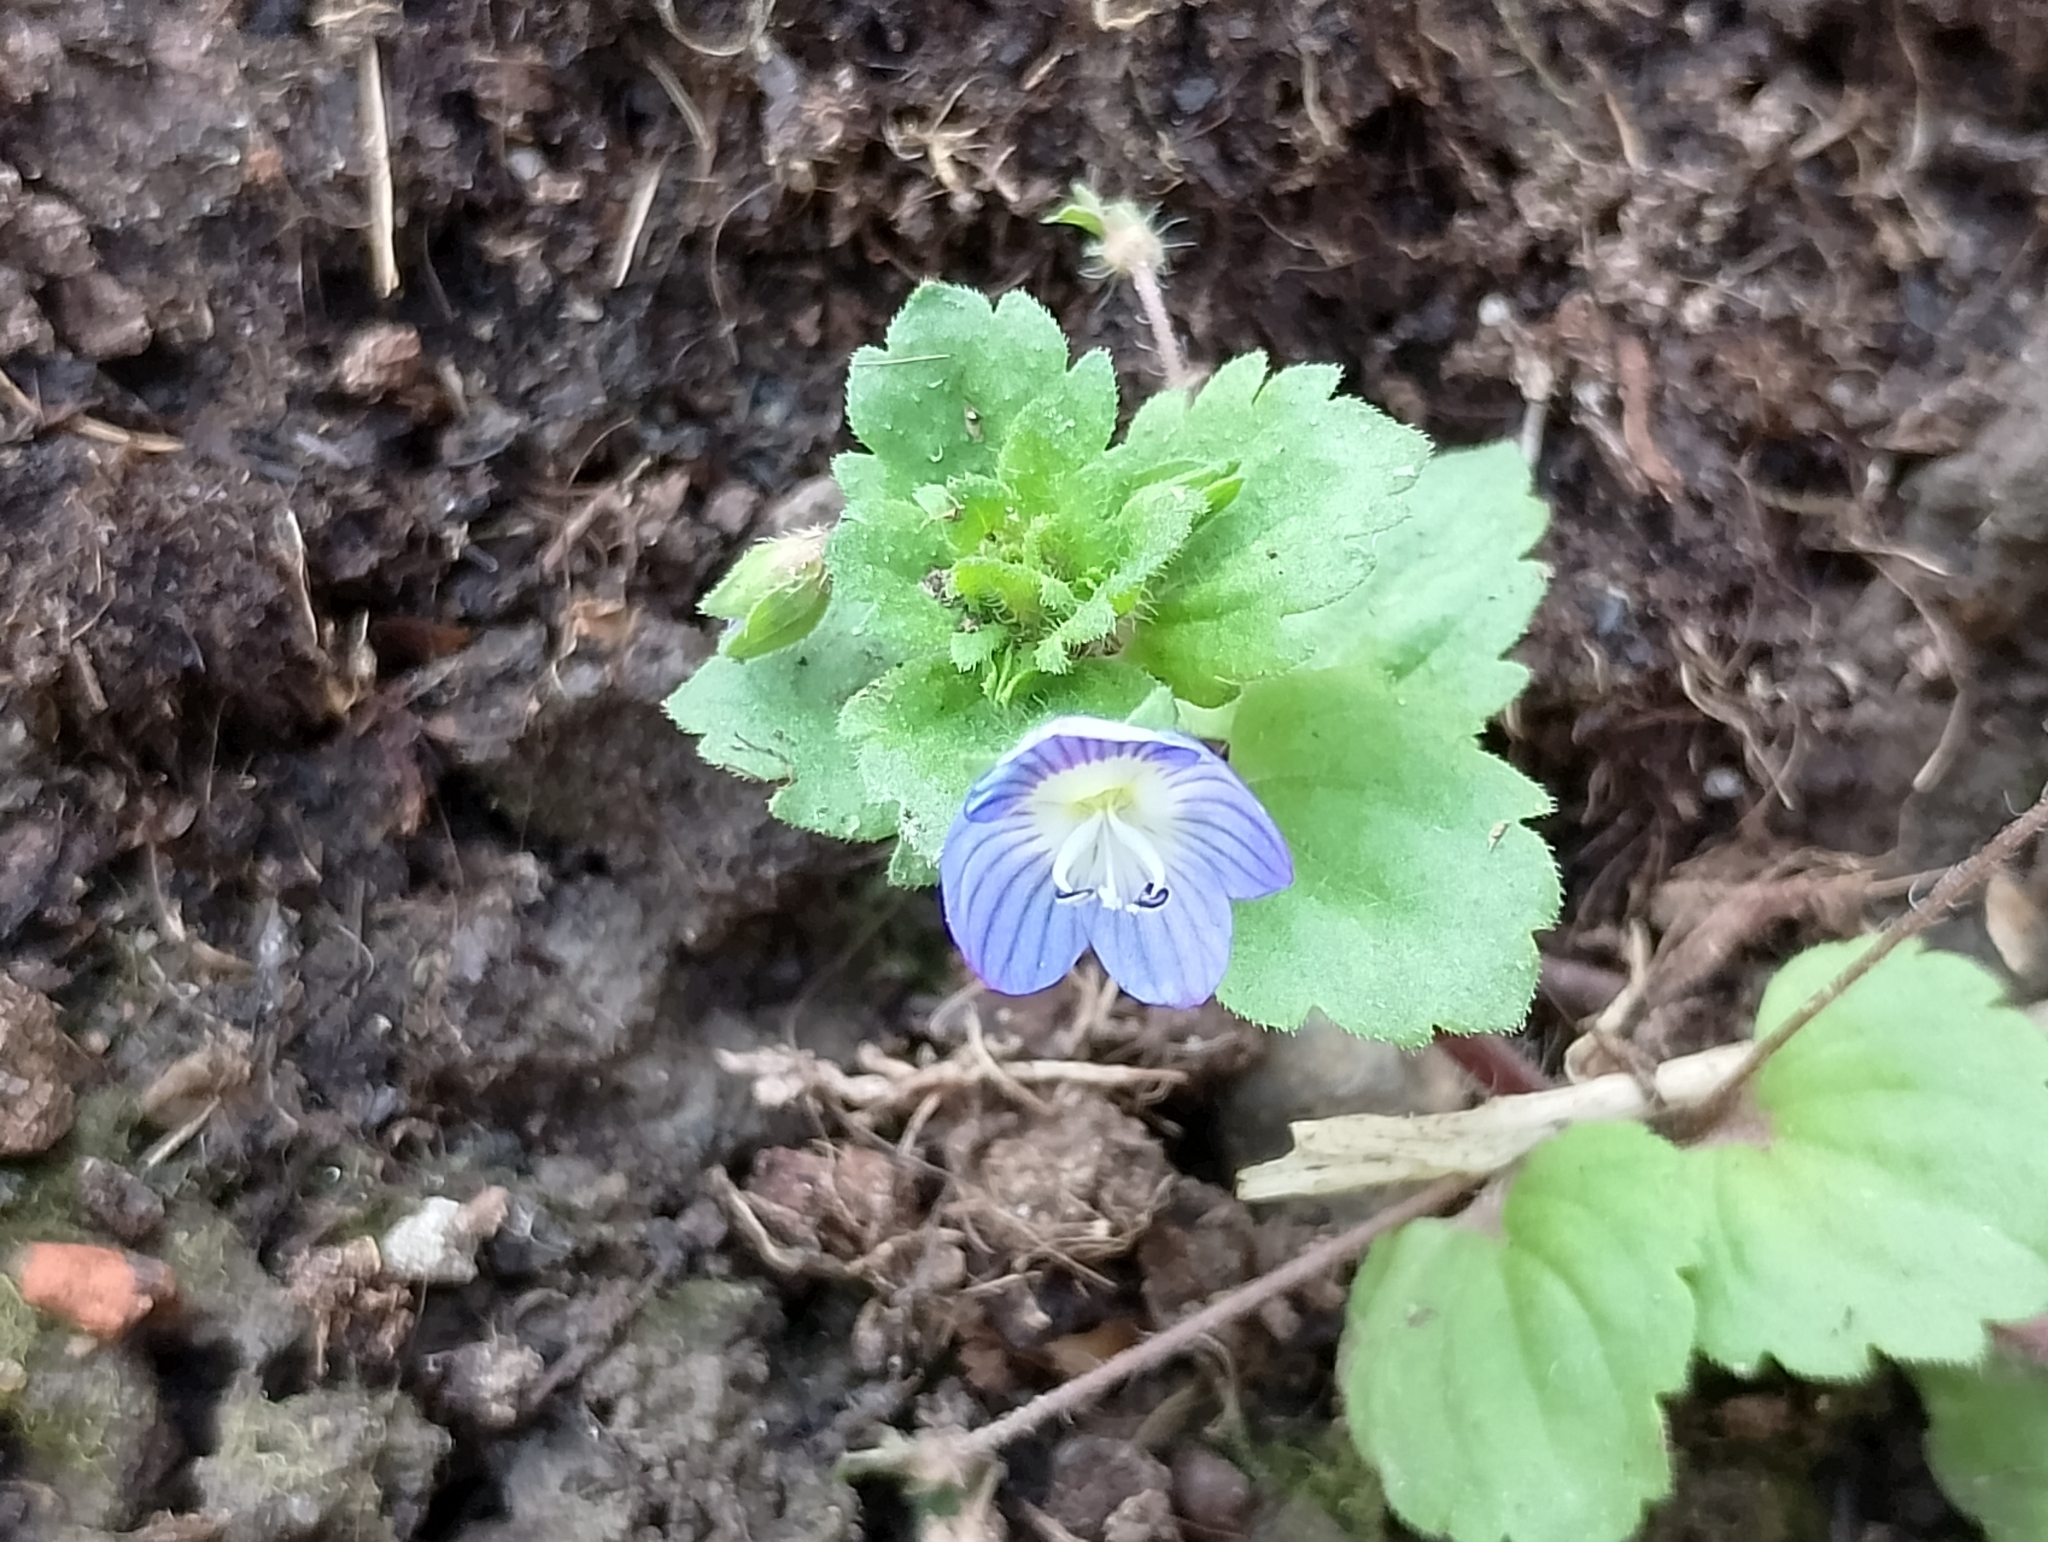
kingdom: Plantae
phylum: Tracheophyta
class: Magnoliopsida
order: Lamiales
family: Plantaginaceae
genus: Veronica
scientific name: Veronica persica
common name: Common field-speedwell
